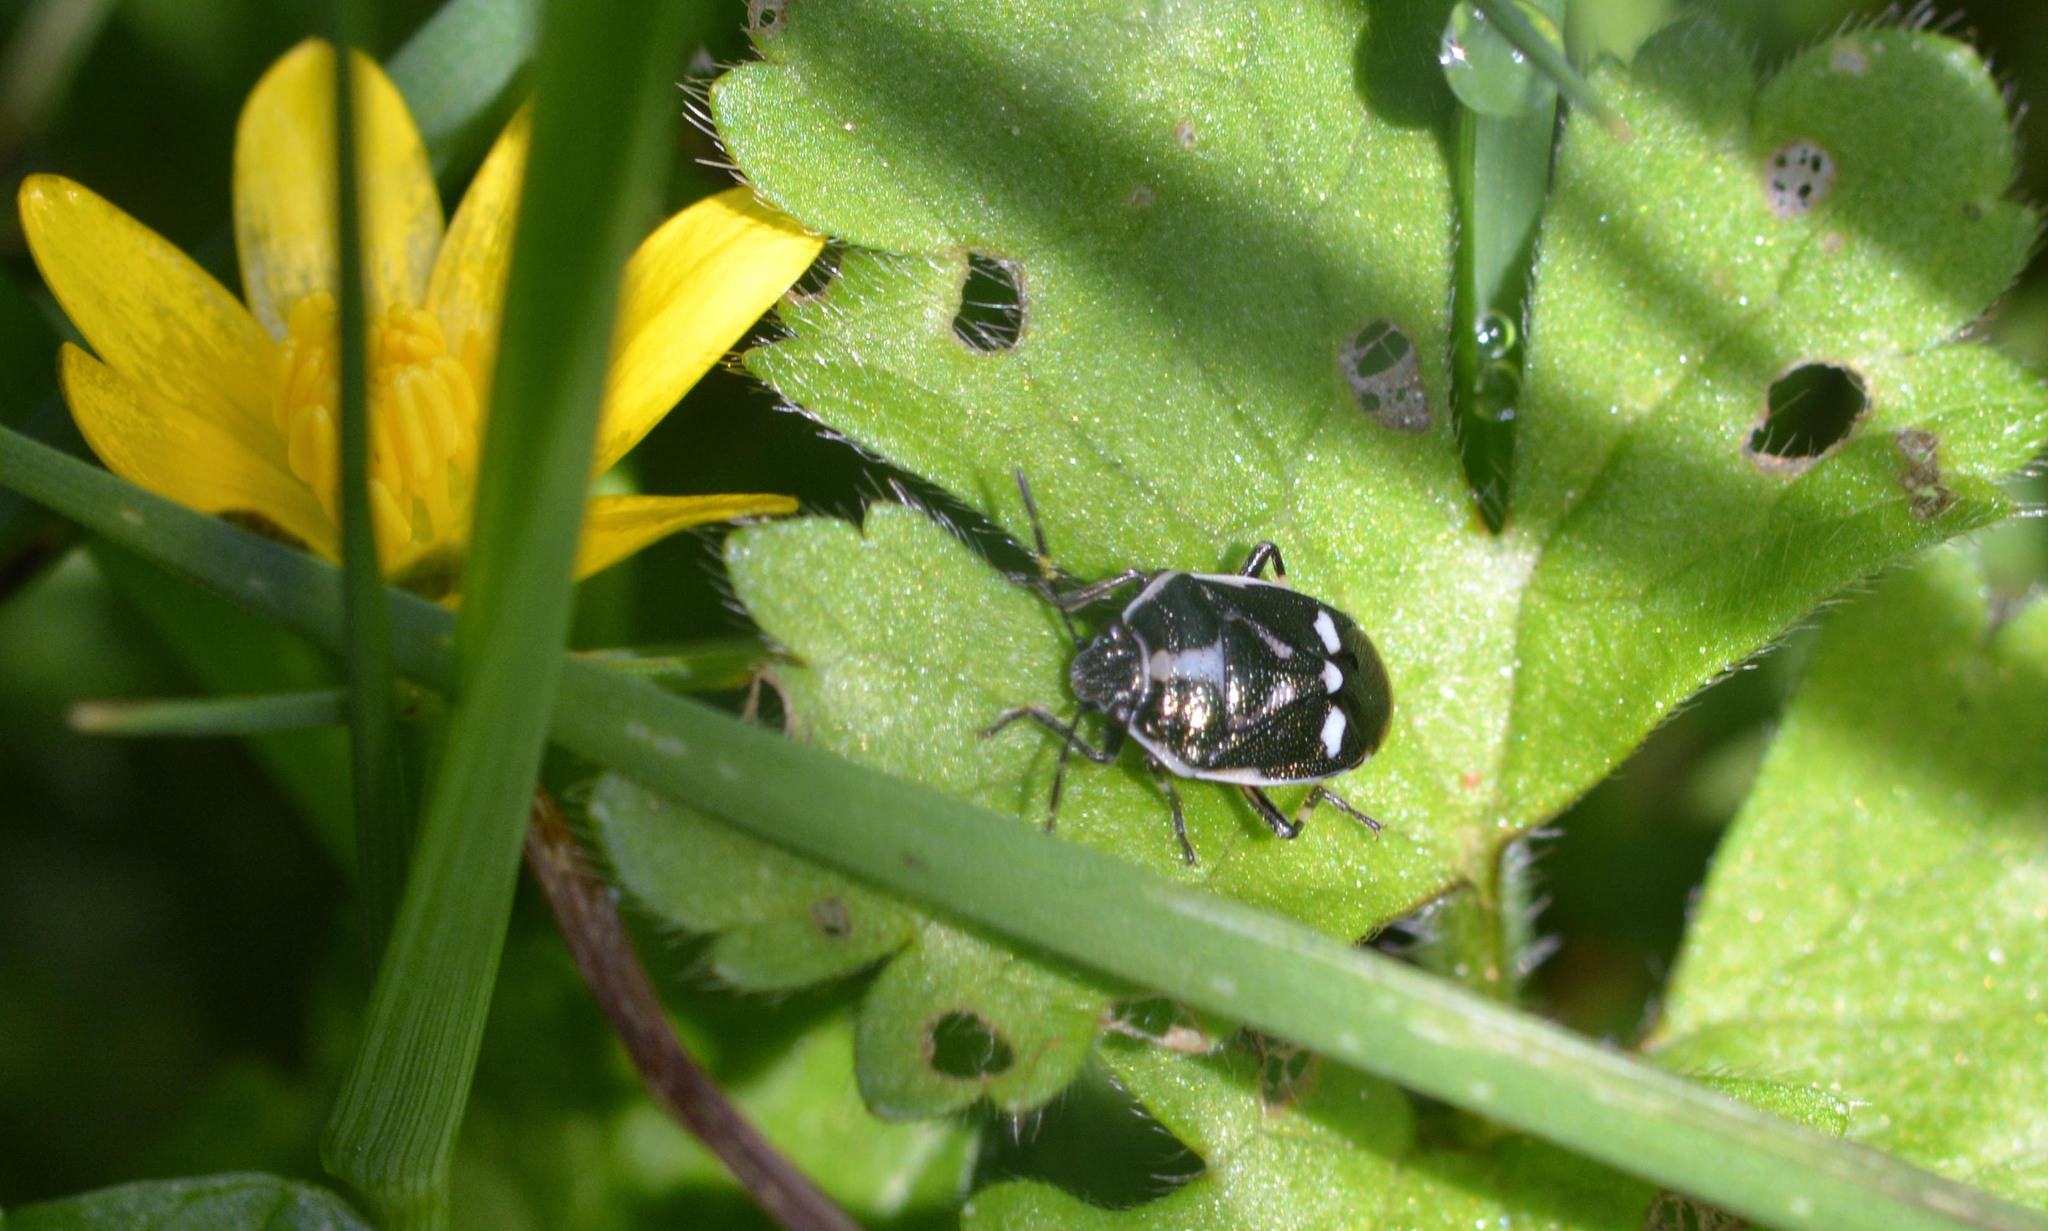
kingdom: Animalia
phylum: Arthropoda
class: Insecta
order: Hemiptera
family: Pentatomidae
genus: Eurydema
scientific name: Eurydema oleracea
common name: Cabbage bug
